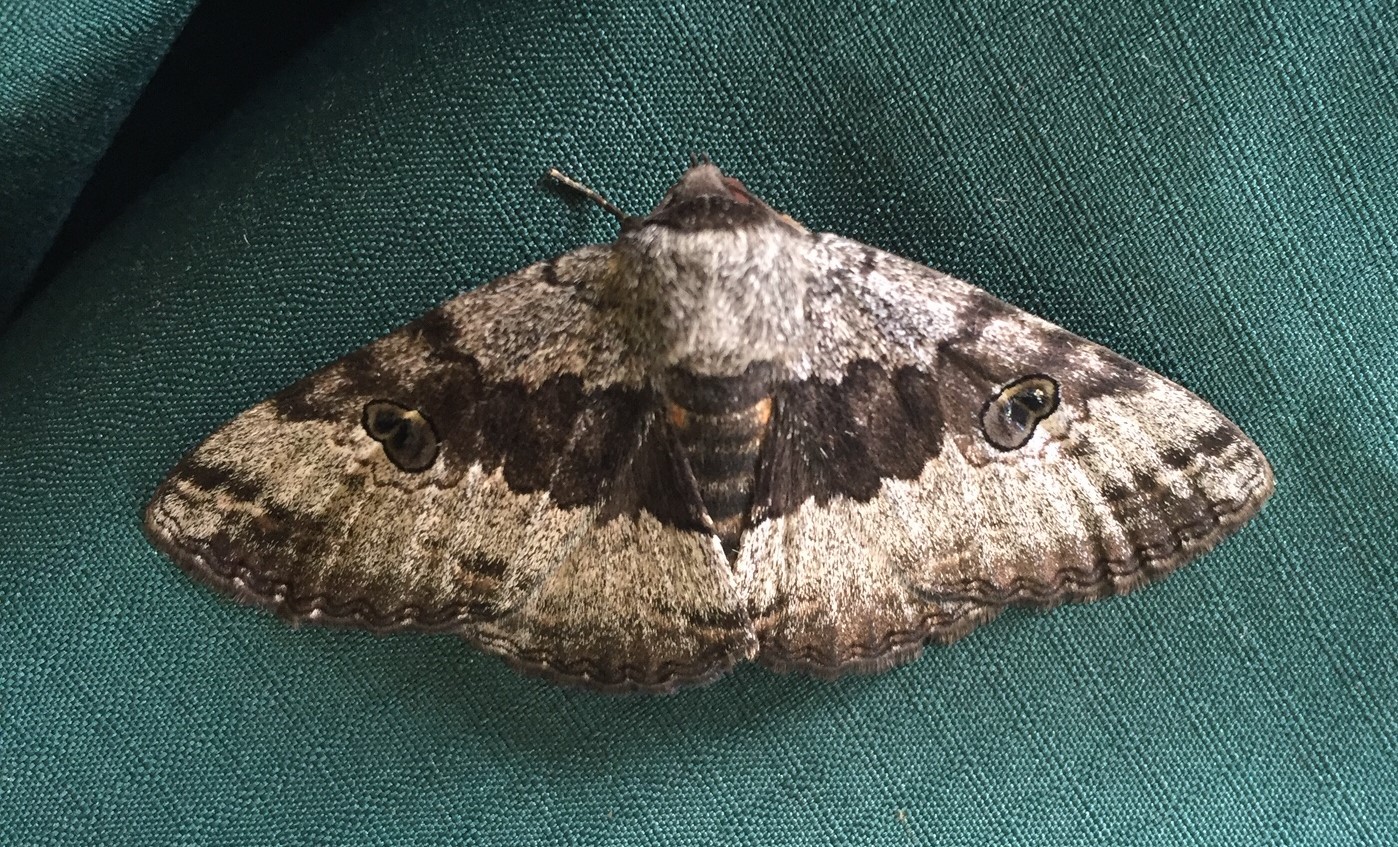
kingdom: Animalia
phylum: Arthropoda
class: Insecta
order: Lepidoptera
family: Erebidae
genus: Donuca
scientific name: Donuca castalia
